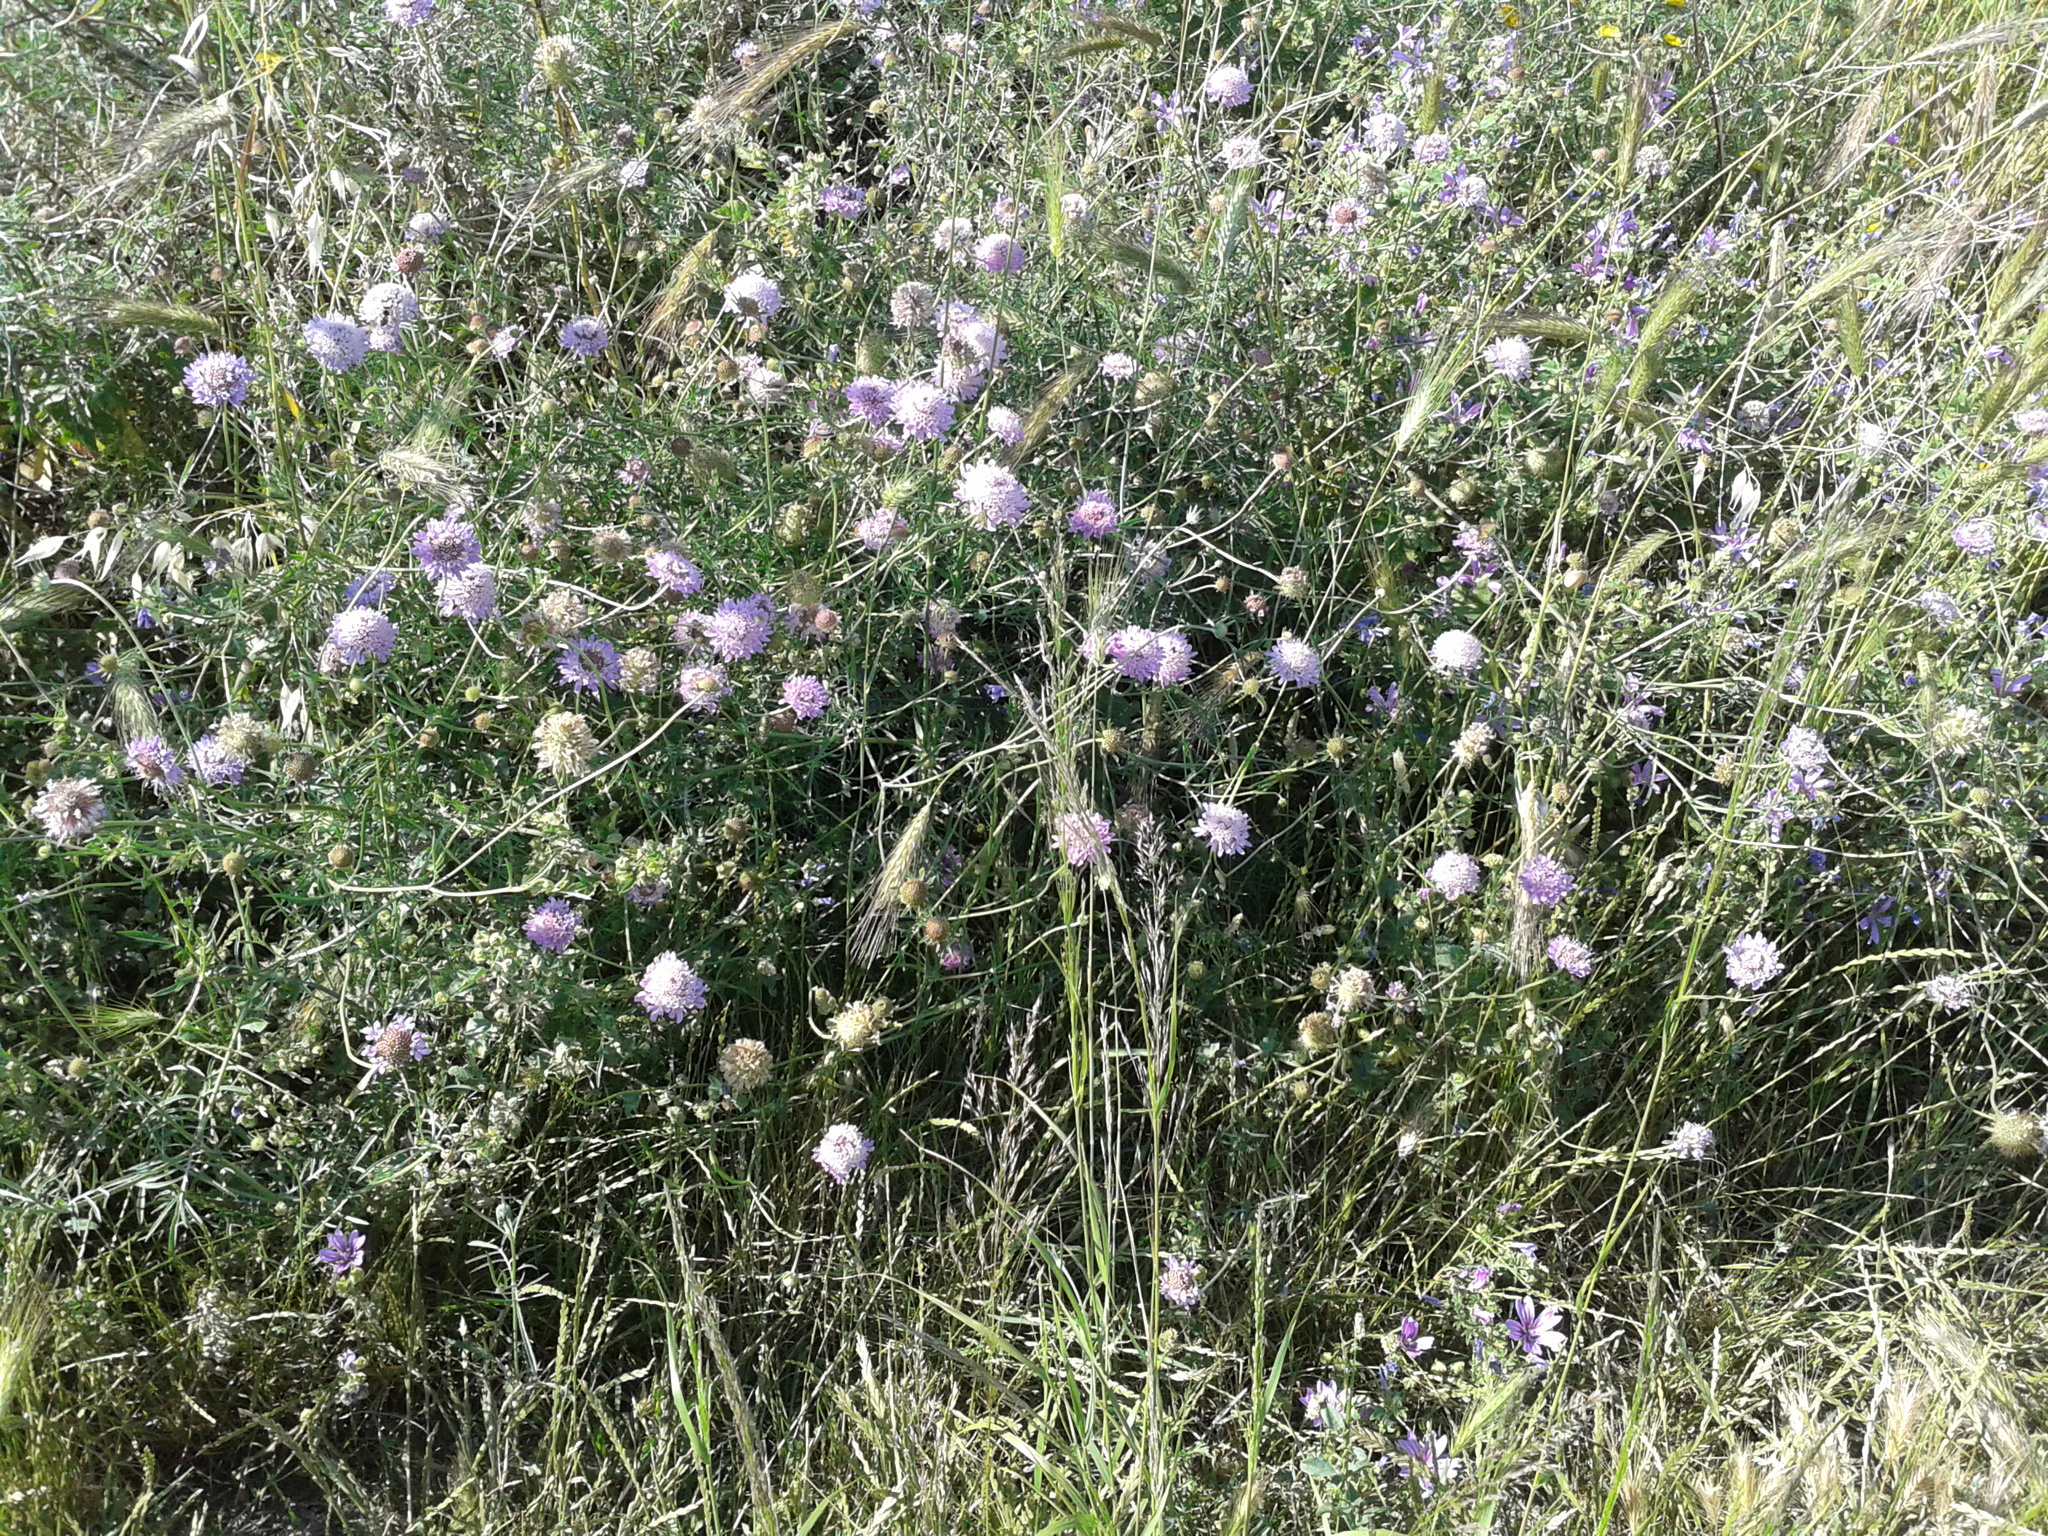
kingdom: Plantae
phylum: Tracheophyta
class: Magnoliopsida
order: Dipsacales
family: Caprifoliaceae
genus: Sixalix
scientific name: Sixalix atropurpurea
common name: Sweet scabious
